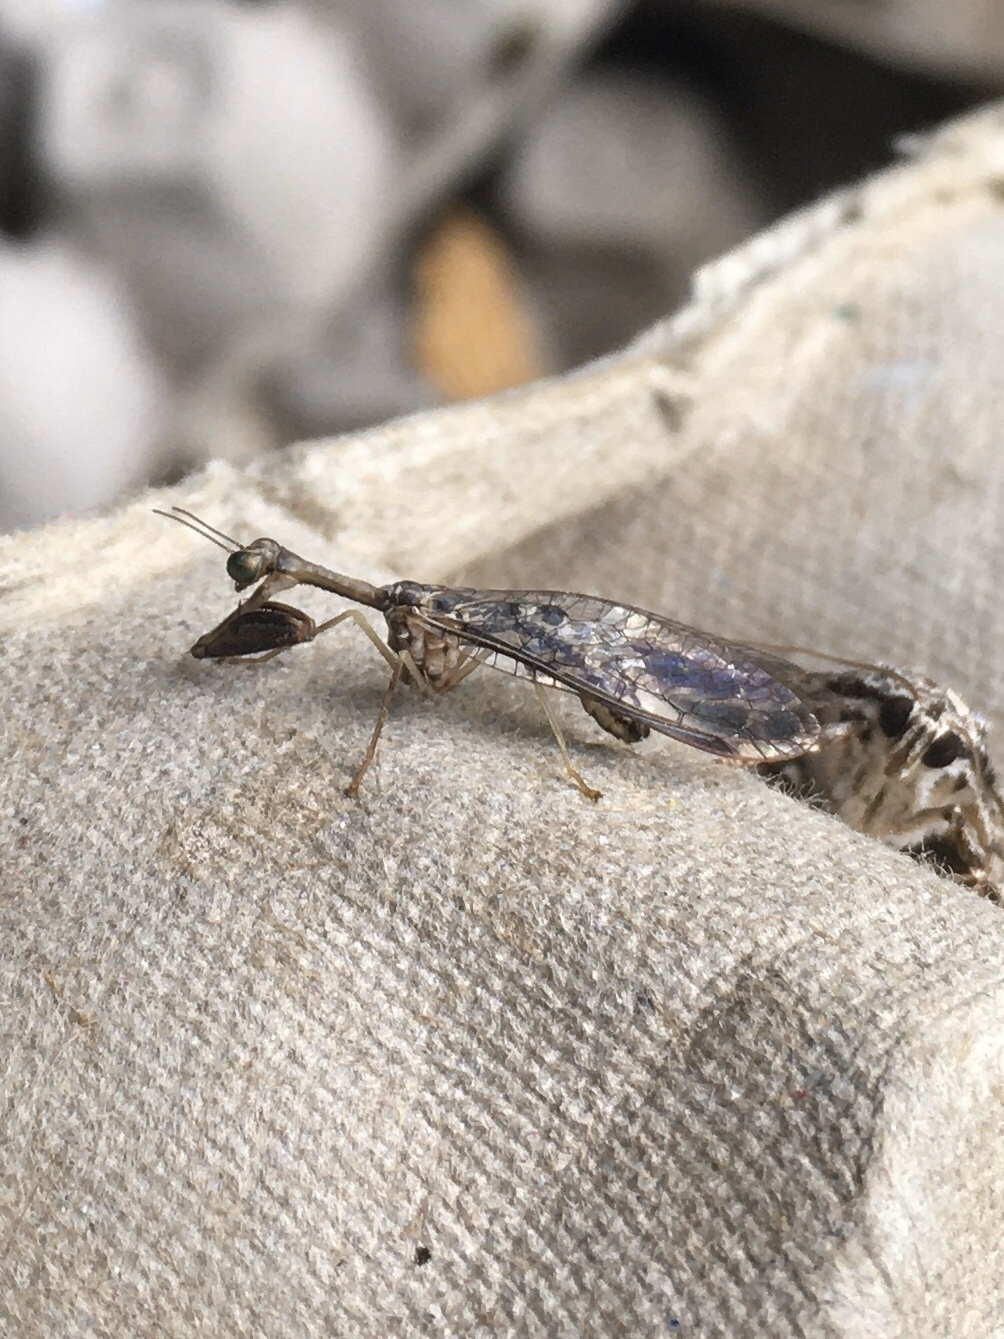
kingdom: Animalia
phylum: Arthropoda
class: Insecta
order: Neuroptera
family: Mantispidae
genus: Dicromantispa
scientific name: Dicromantispa sayi
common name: Say's mantidfly
